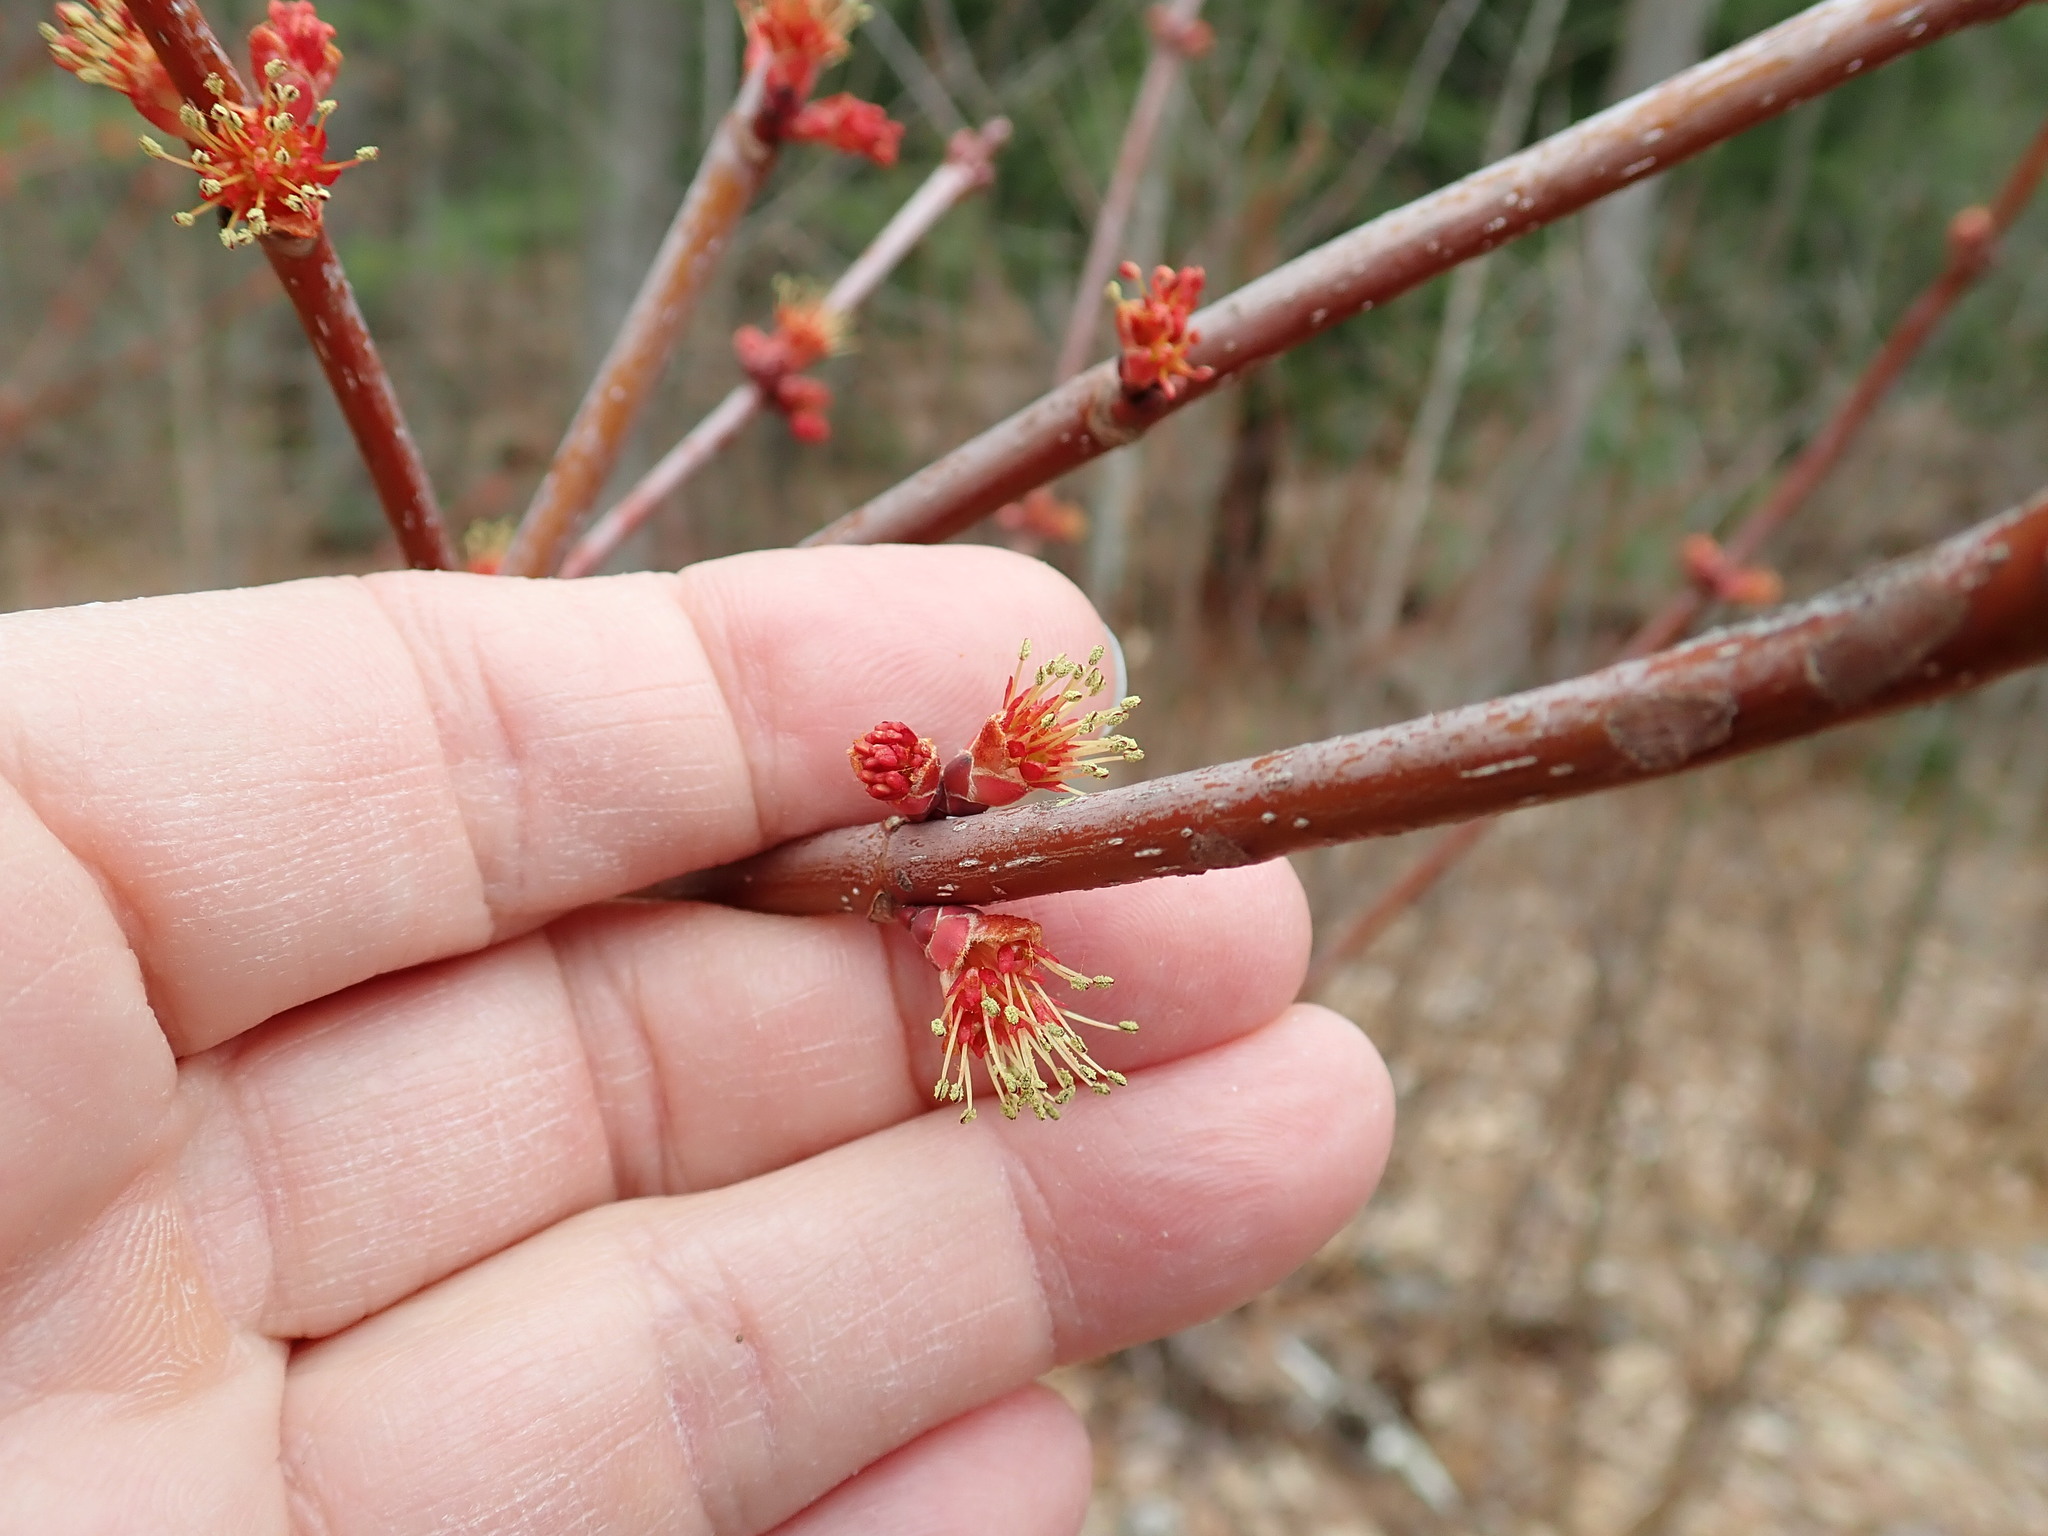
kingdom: Plantae
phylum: Tracheophyta
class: Magnoliopsida
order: Sapindales
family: Sapindaceae
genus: Acer
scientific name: Acer rubrum
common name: Red maple
